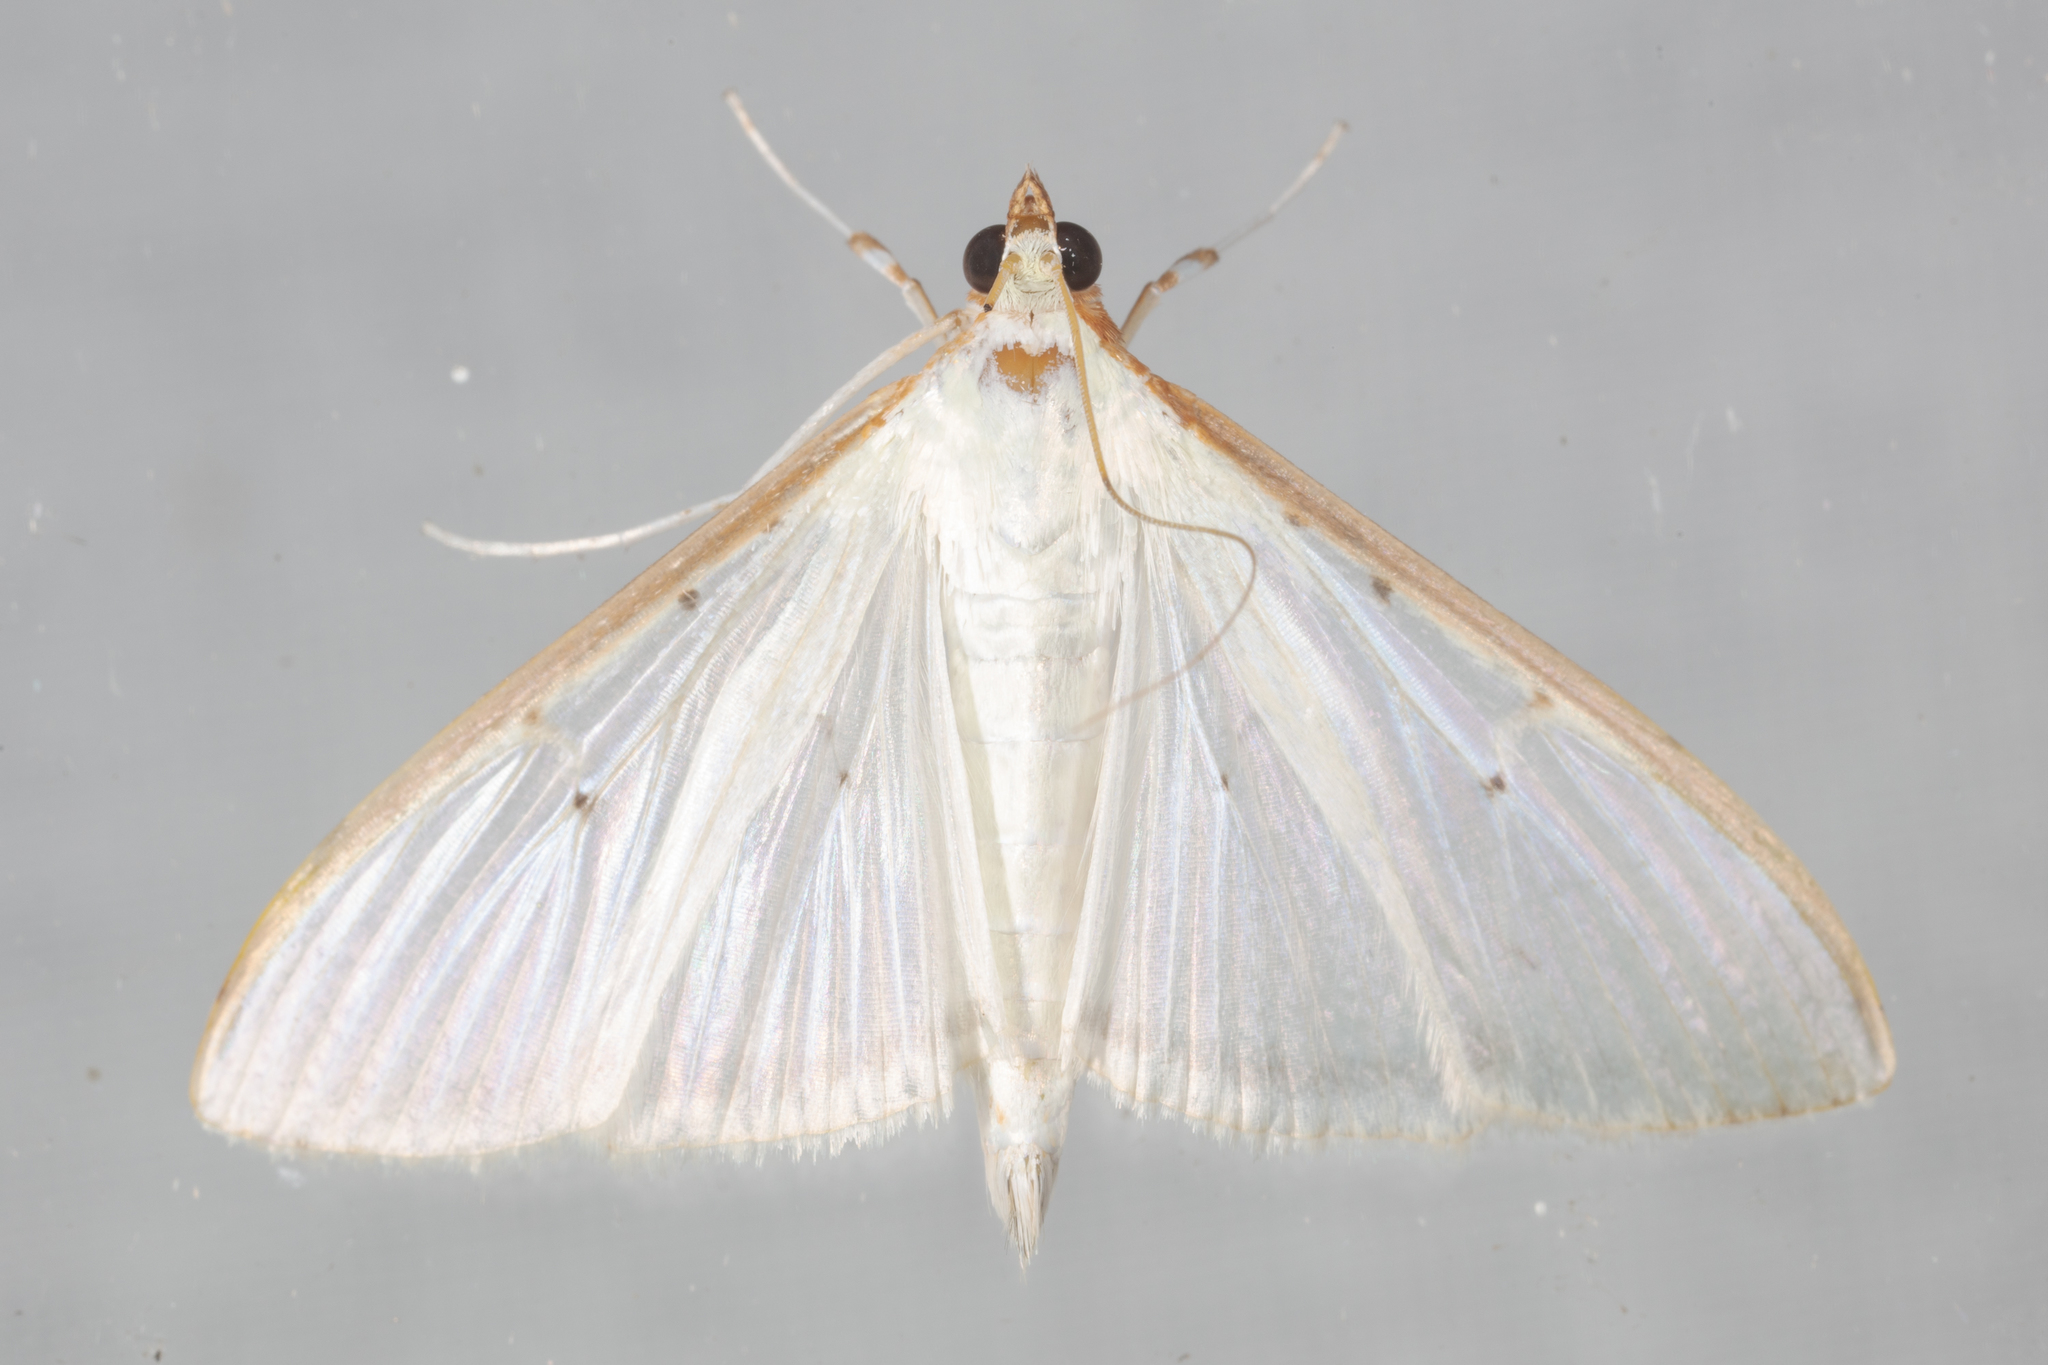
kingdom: Animalia
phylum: Arthropoda
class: Insecta
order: Lepidoptera
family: Crambidae
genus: Palpita
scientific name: Palpita quadristigmalis
